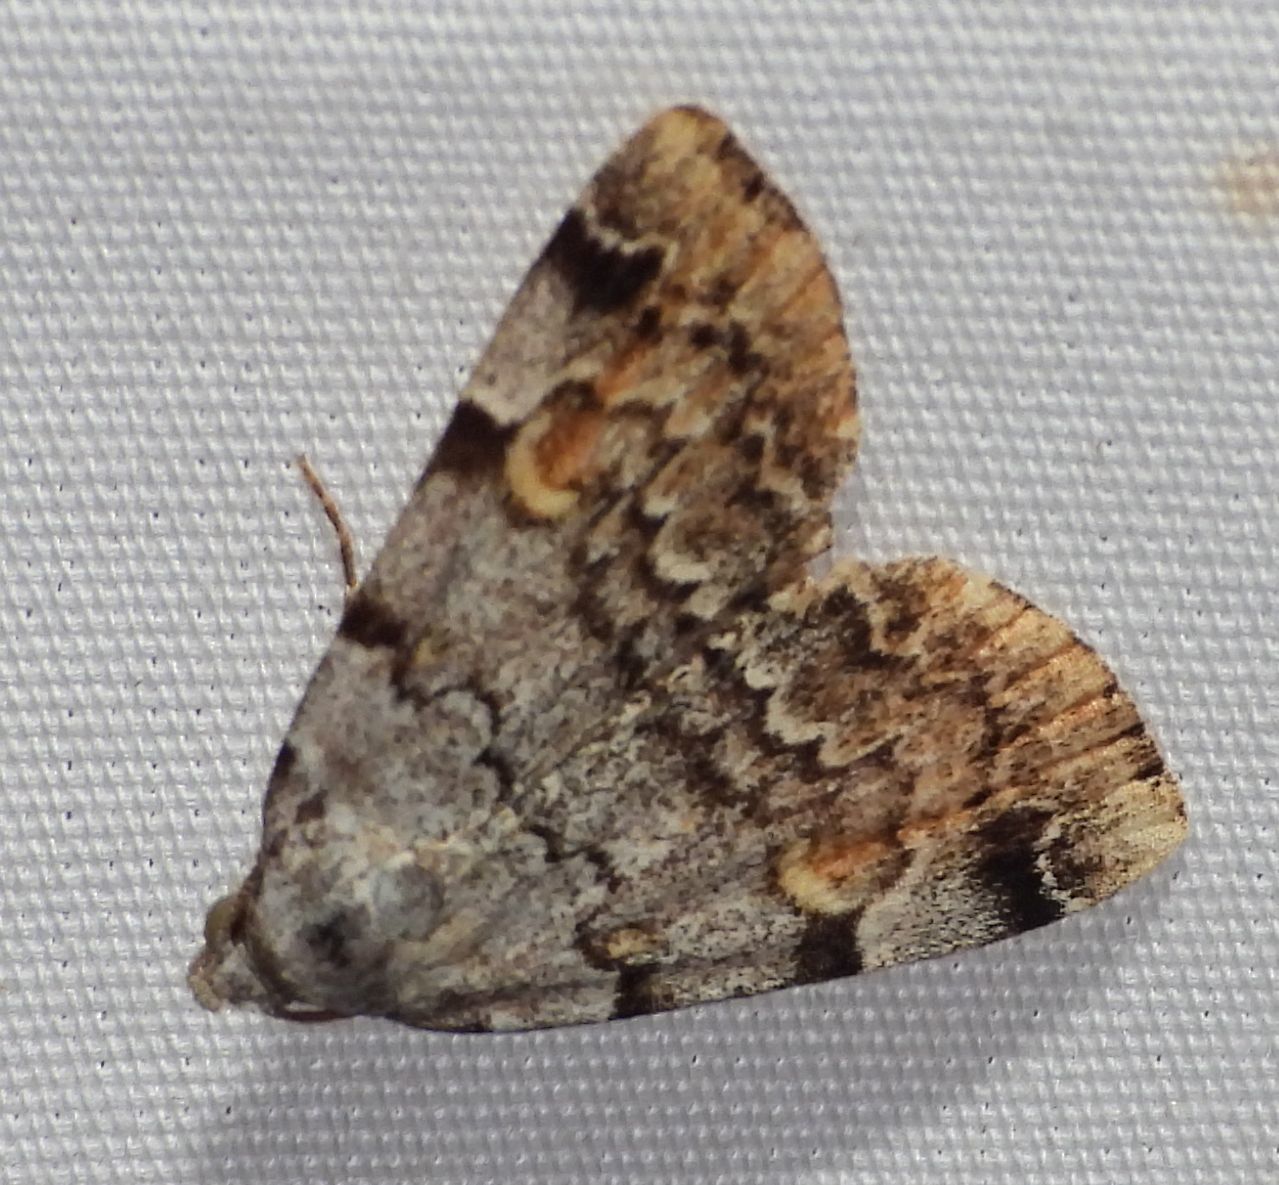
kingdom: Animalia
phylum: Arthropoda
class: Insecta
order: Lepidoptera
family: Erebidae
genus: Idia
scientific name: Idia americalis
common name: American idia moth
